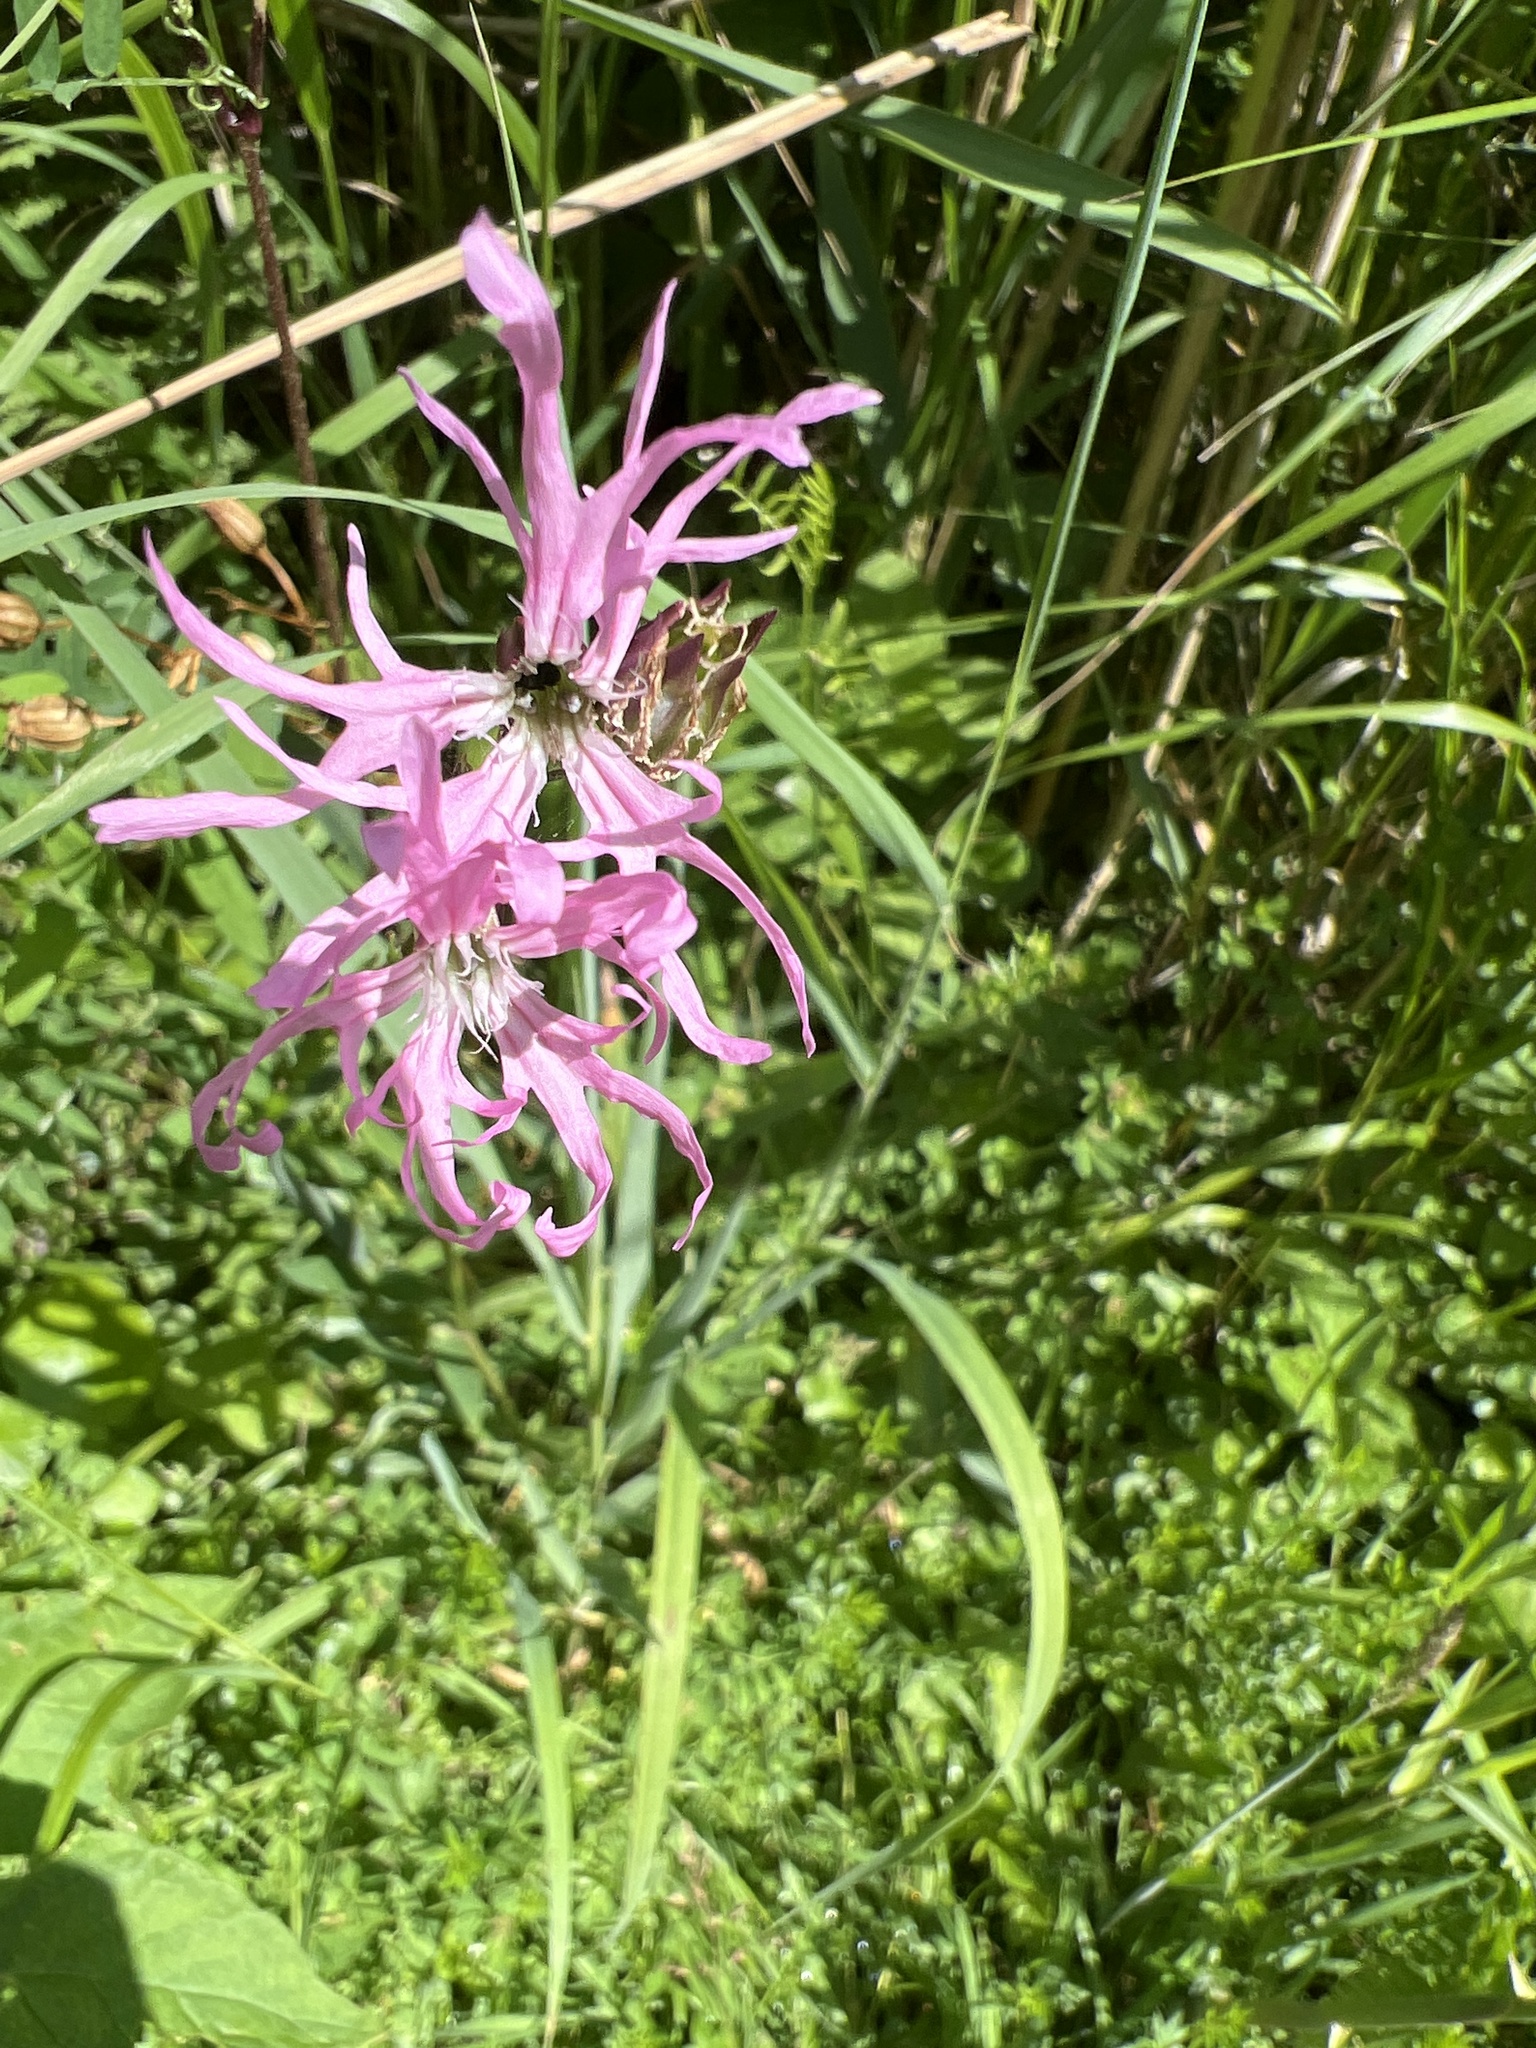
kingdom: Plantae
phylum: Tracheophyta
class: Magnoliopsida
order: Caryophyllales
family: Caryophyllaceae
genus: Silene
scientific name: Silene flos-cuculi
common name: Ragged-robin
